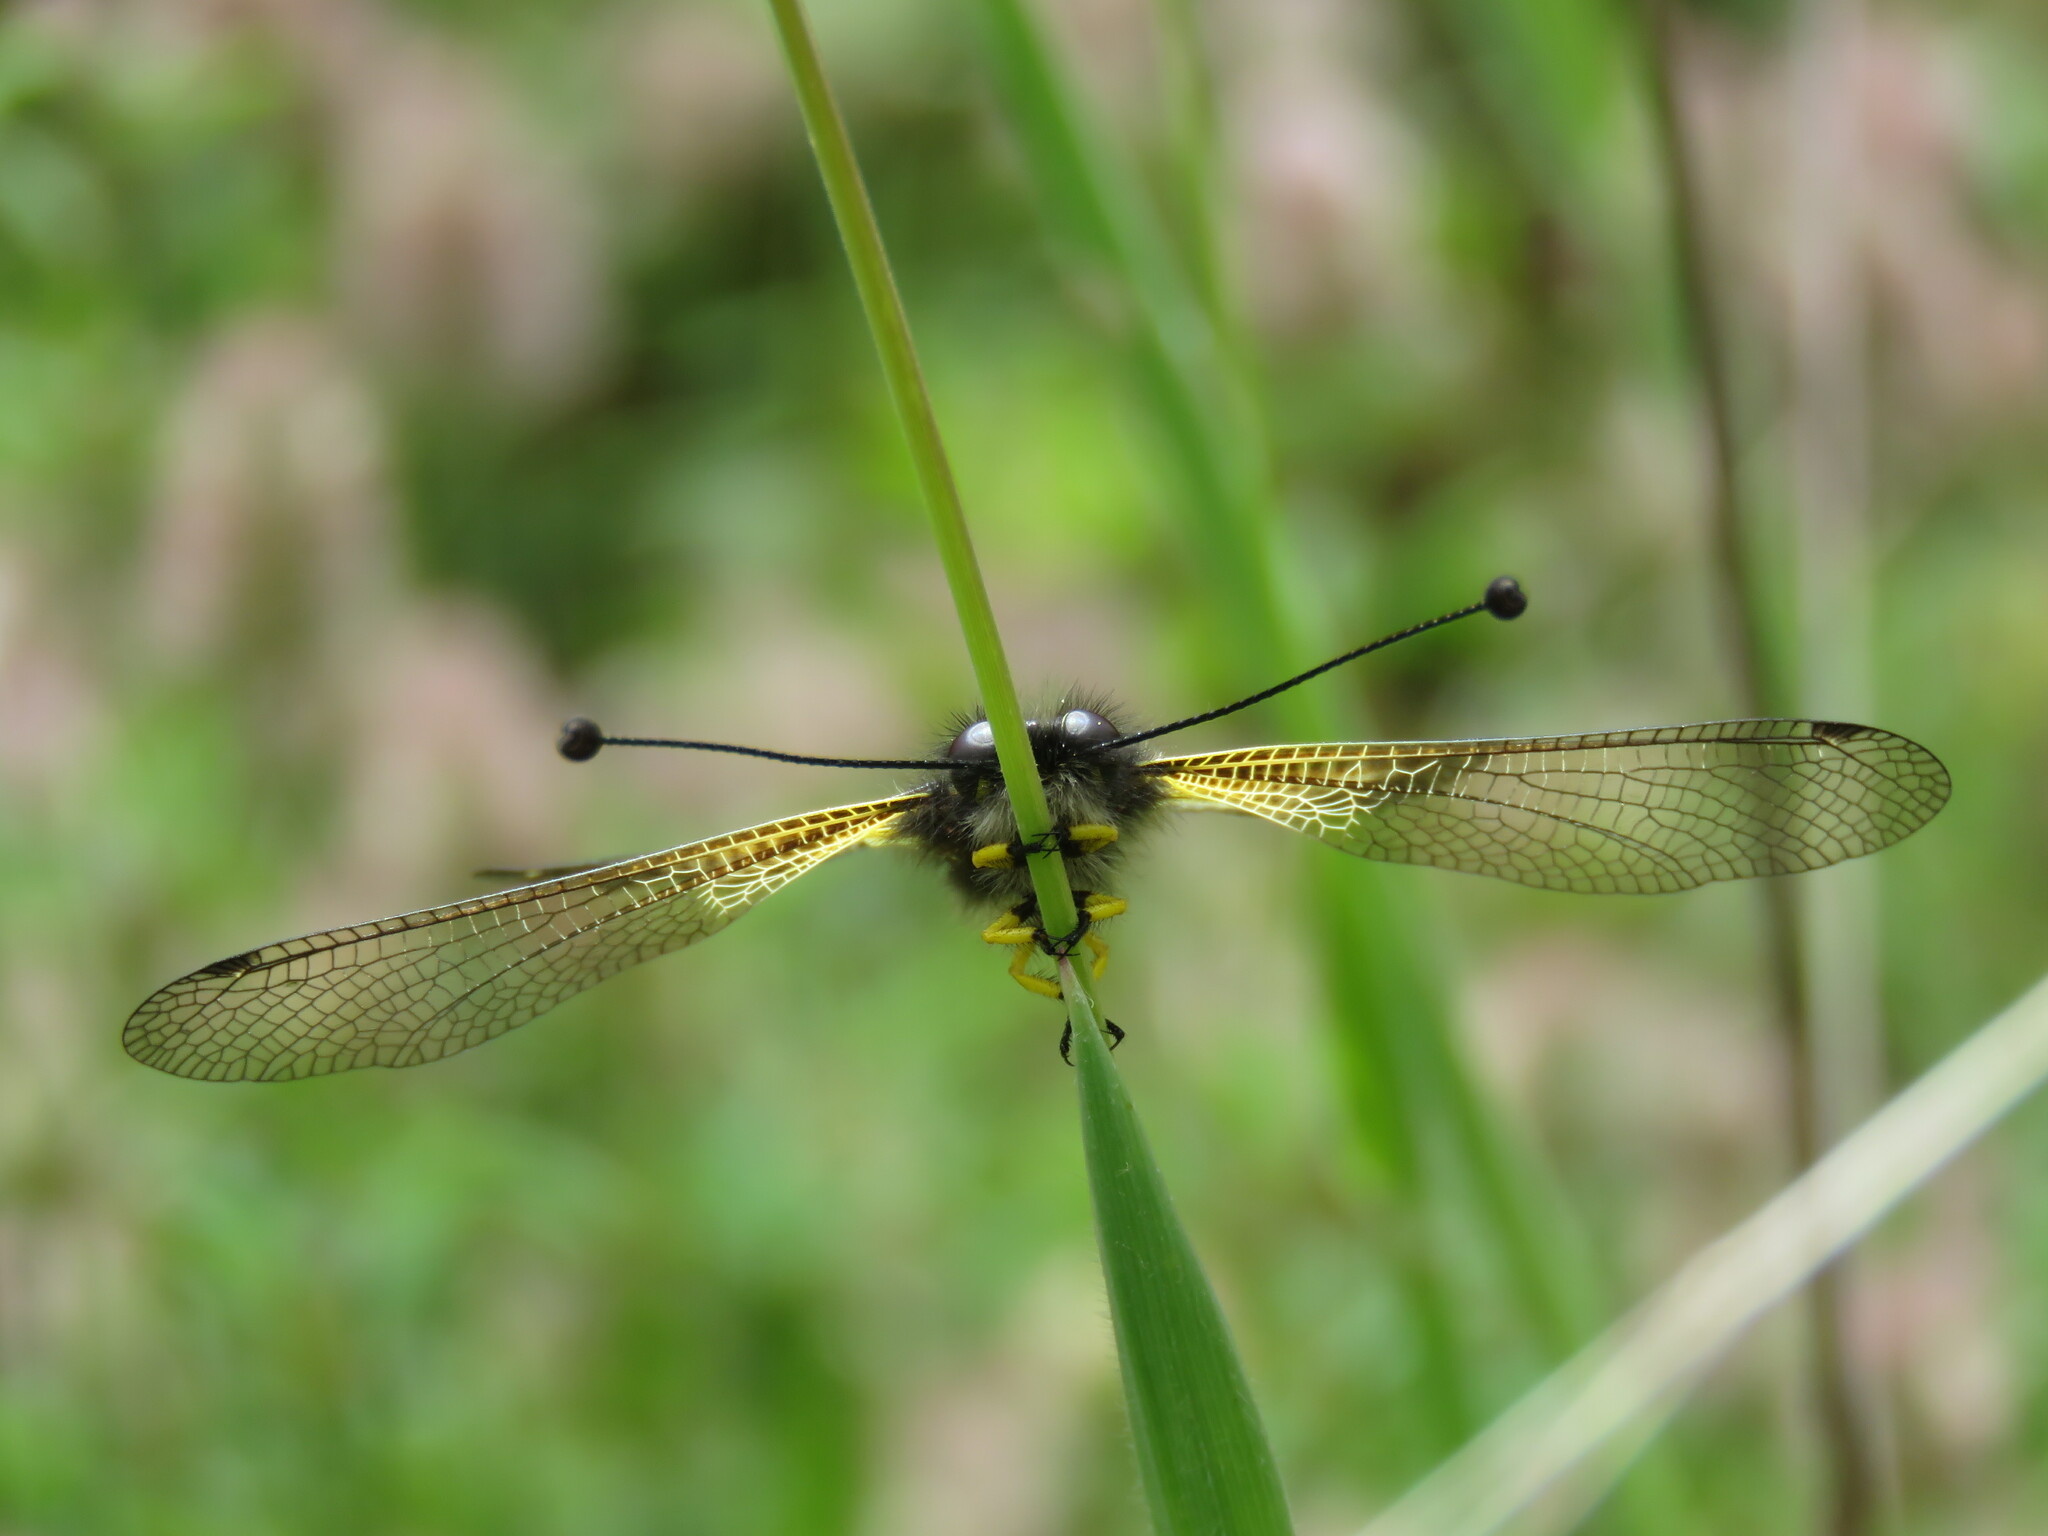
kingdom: Animalia
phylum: Arthropoda
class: Insecta
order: Neuroptera
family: Ascalaphidae
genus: Libelloides
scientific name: Libelloides hispanicus
